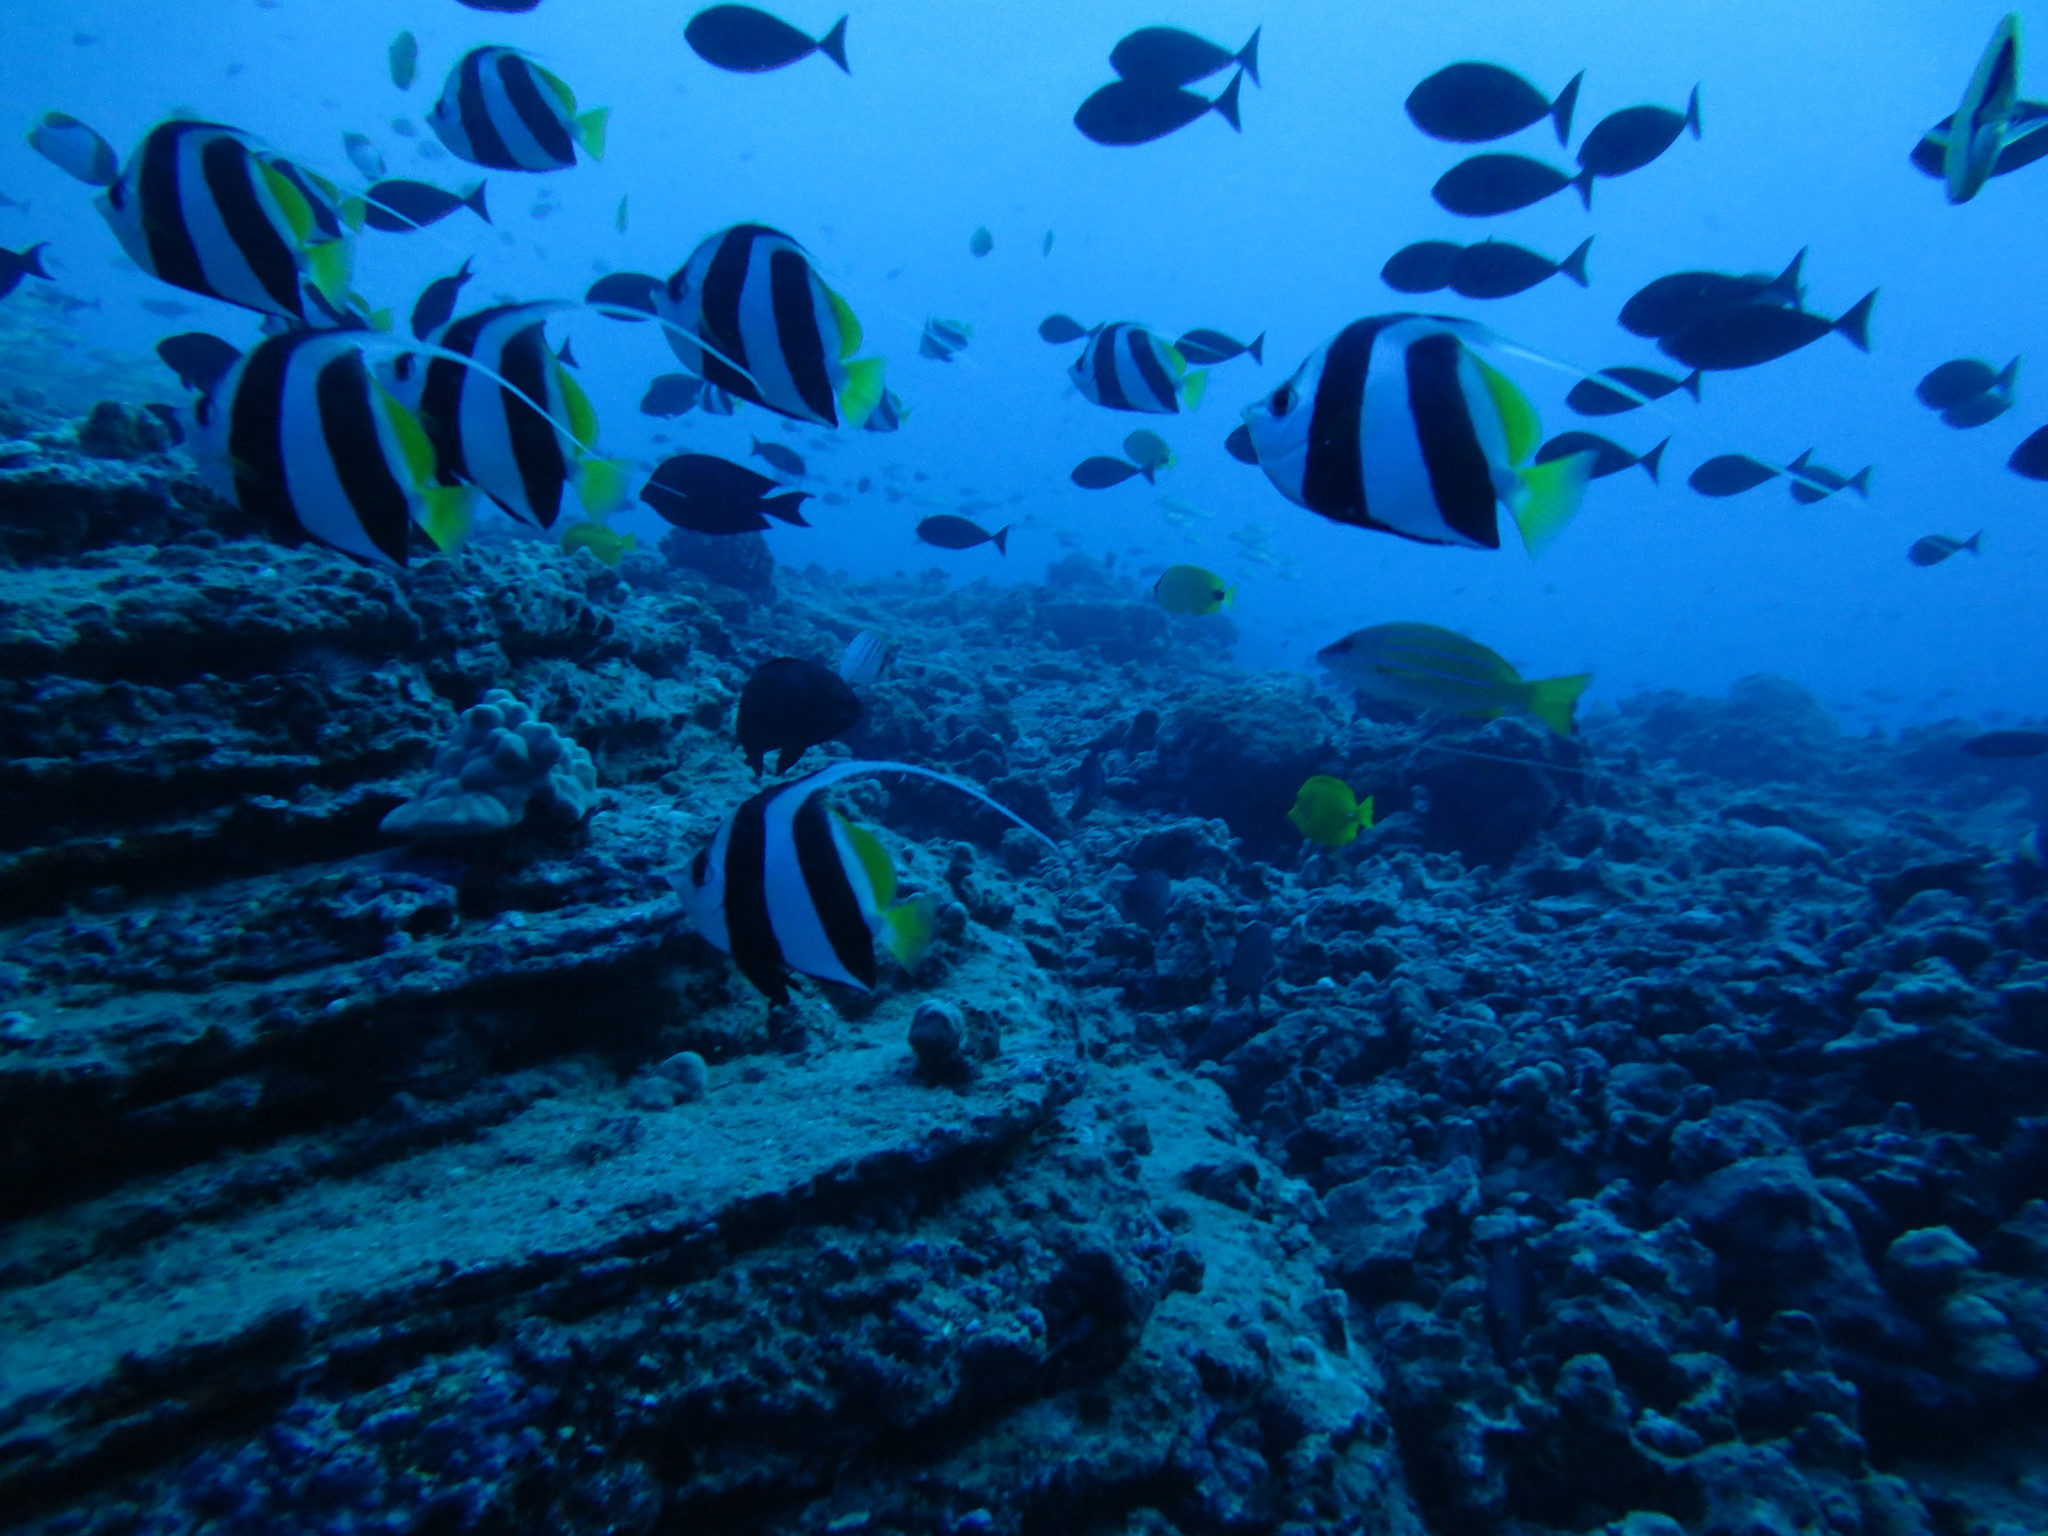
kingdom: Animalia
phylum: Chordata
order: Perciformes
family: Chaetodontidae
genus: Heniochus
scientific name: Heniochus diphreutes
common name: Pennantfish
